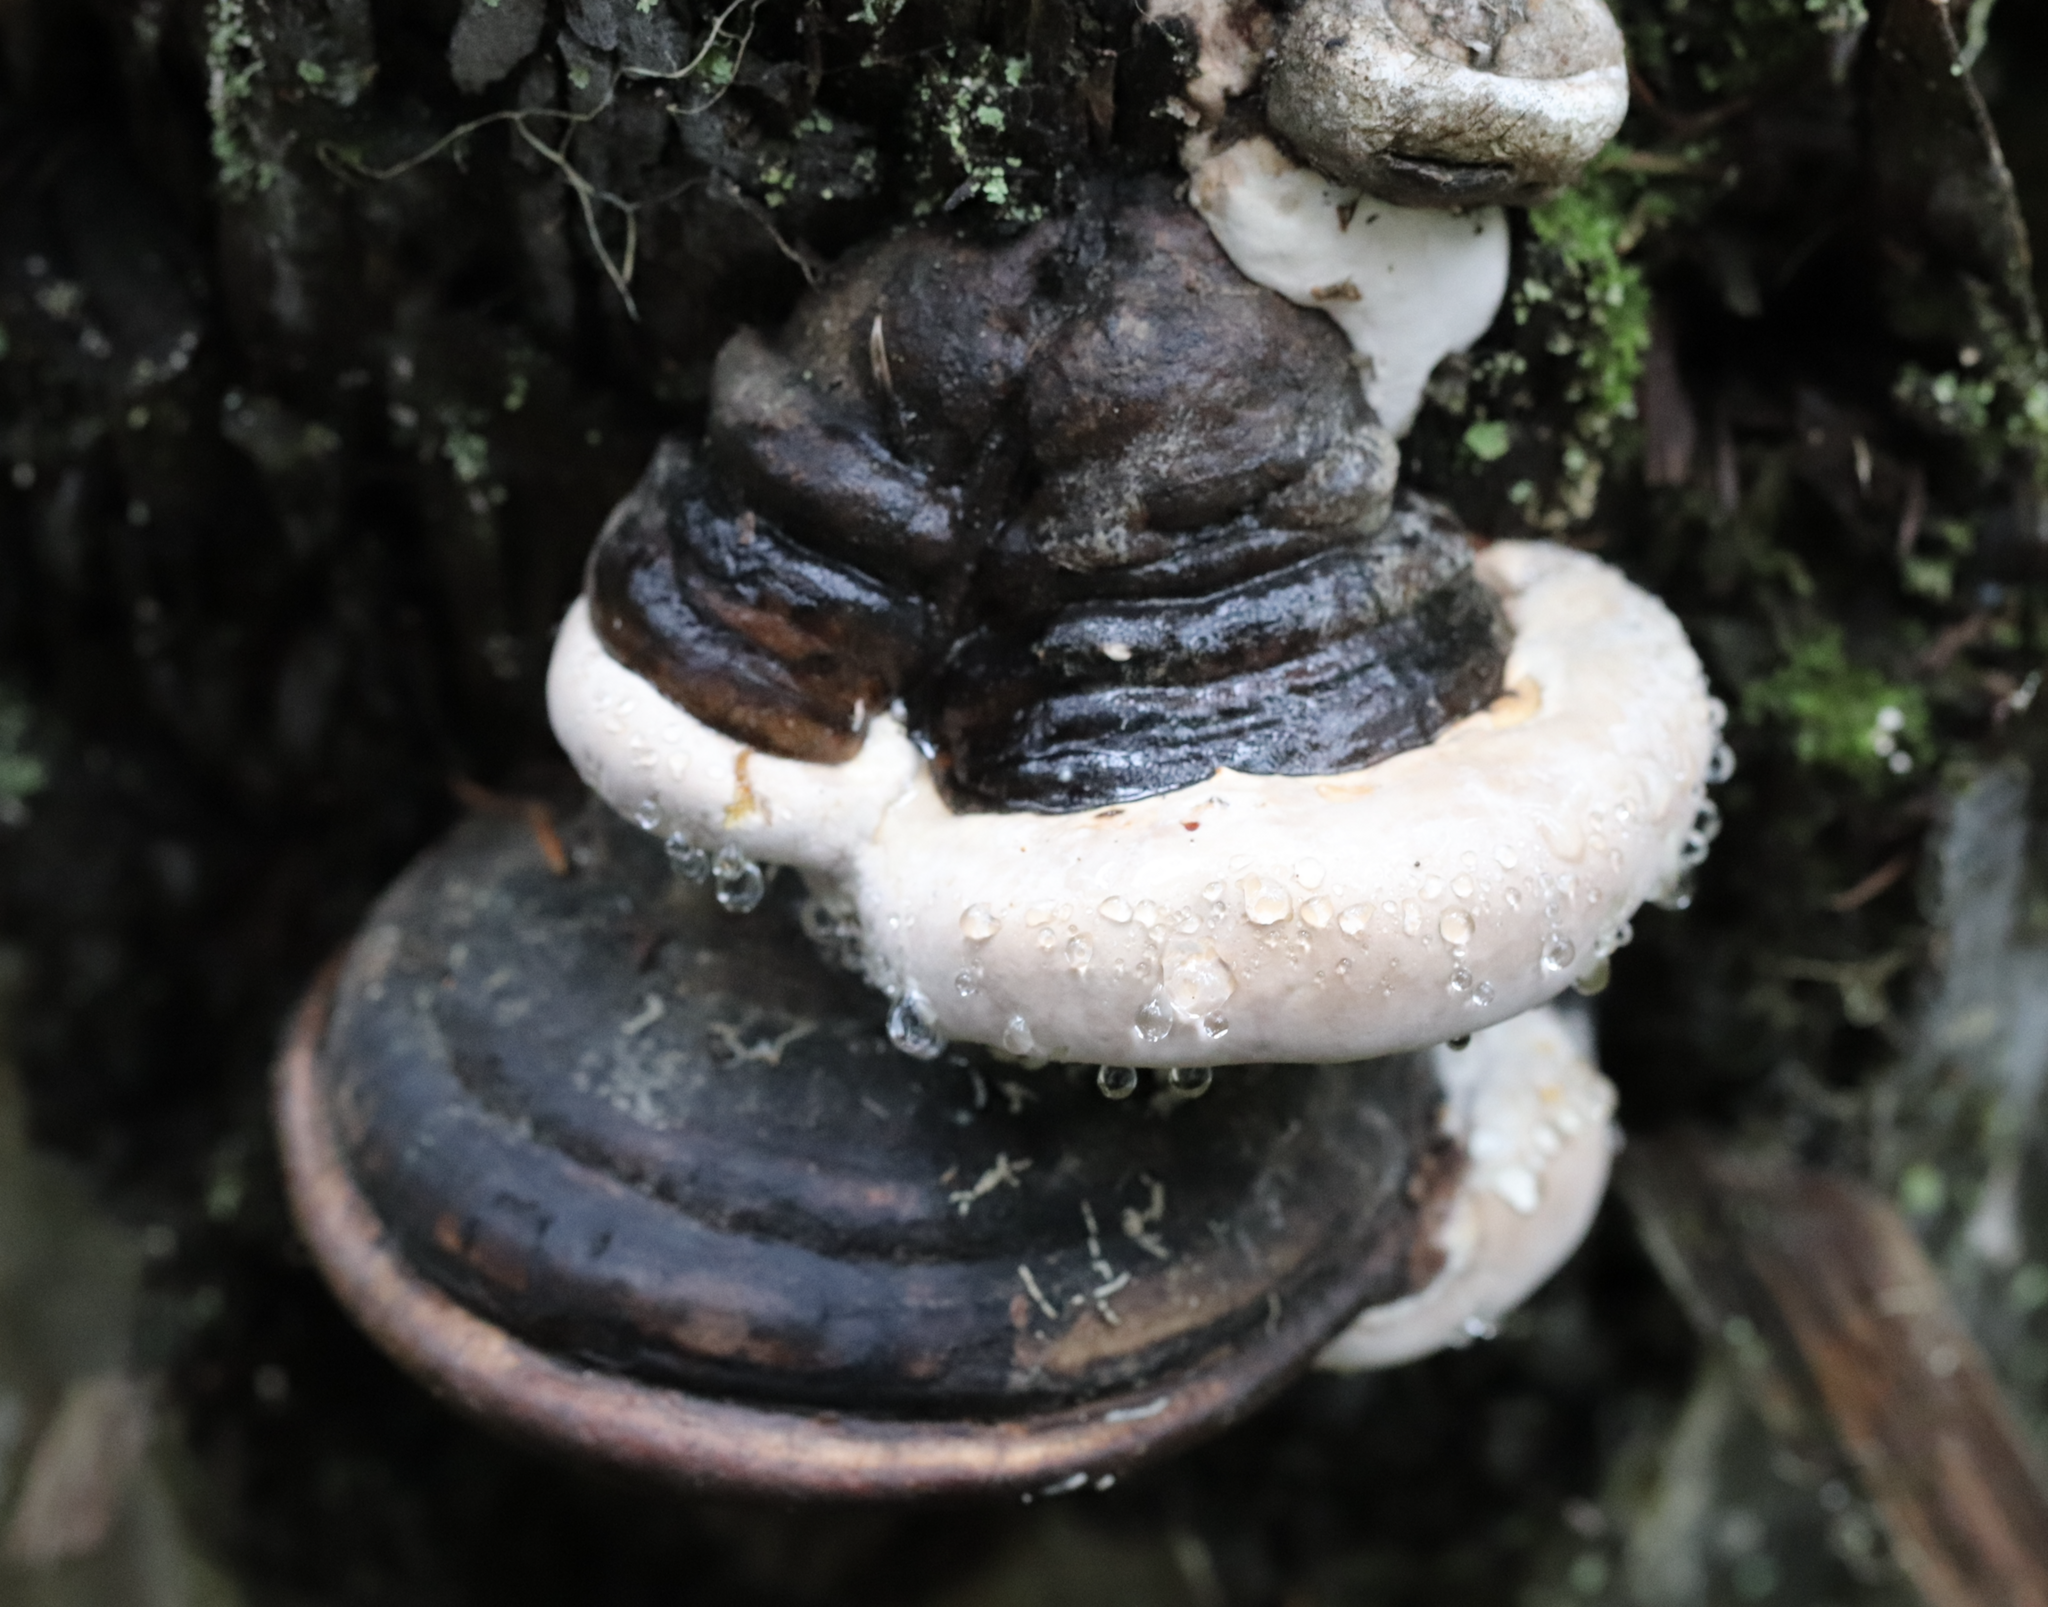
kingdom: Fungi
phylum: Basidiomycota
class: Agaricomycetes
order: Polyporales
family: Fomitopsidaceae
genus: Fomitopsis
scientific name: Fomitopsis ochracea
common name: American brown fomitopsis
